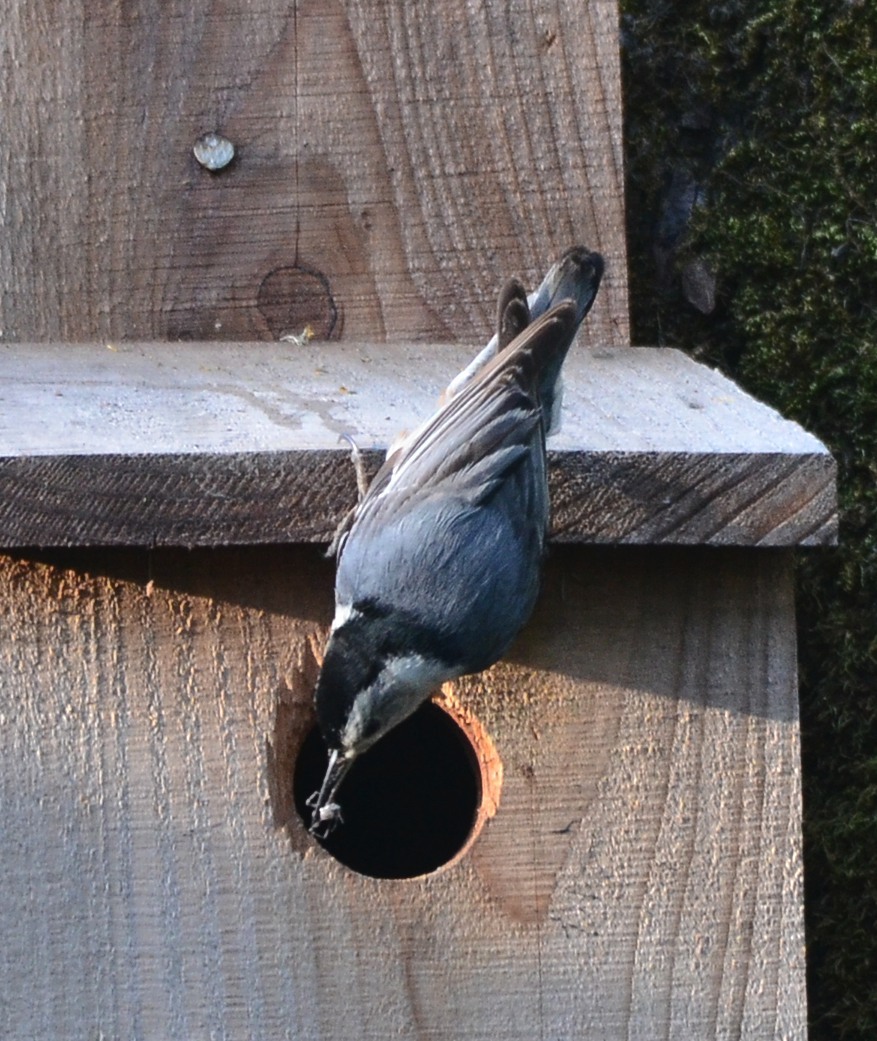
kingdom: Animalia
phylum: Chordata
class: Aves
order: Passeriformes
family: Sittidae
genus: Sitta
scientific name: Sitta carolinensis
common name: White-breasted nuthatch
